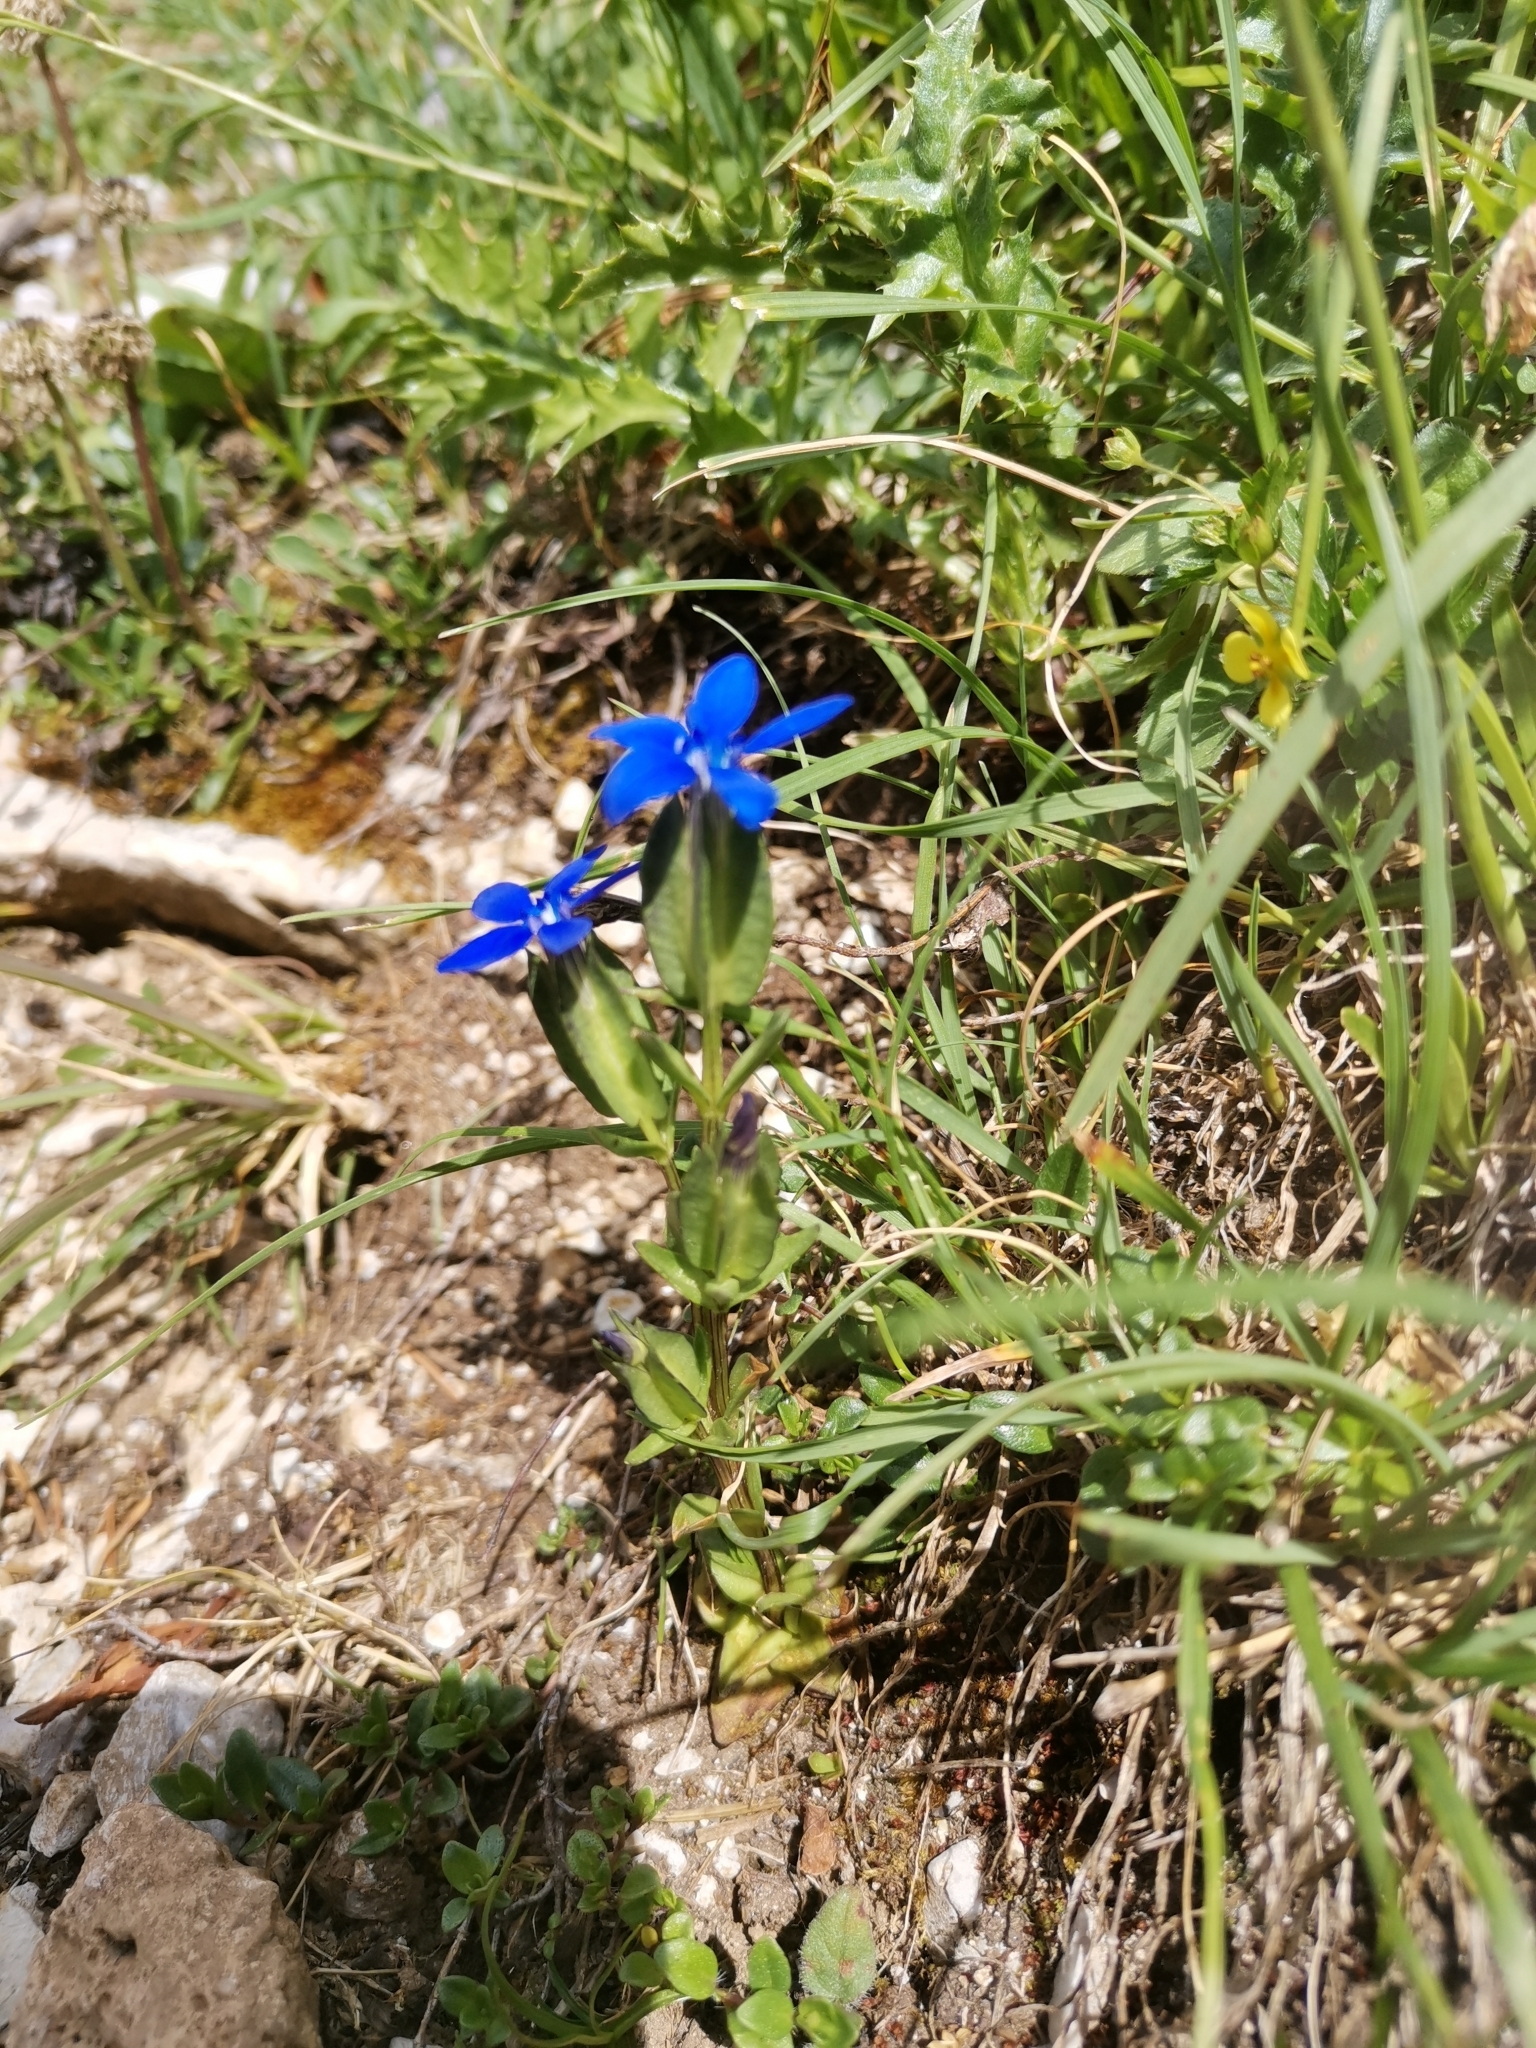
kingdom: Plantae
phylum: Tracheophyta
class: Magnoliopsida
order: Gentianales
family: Gentianaceae
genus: Gentiana
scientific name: Gentiana utriculosa
